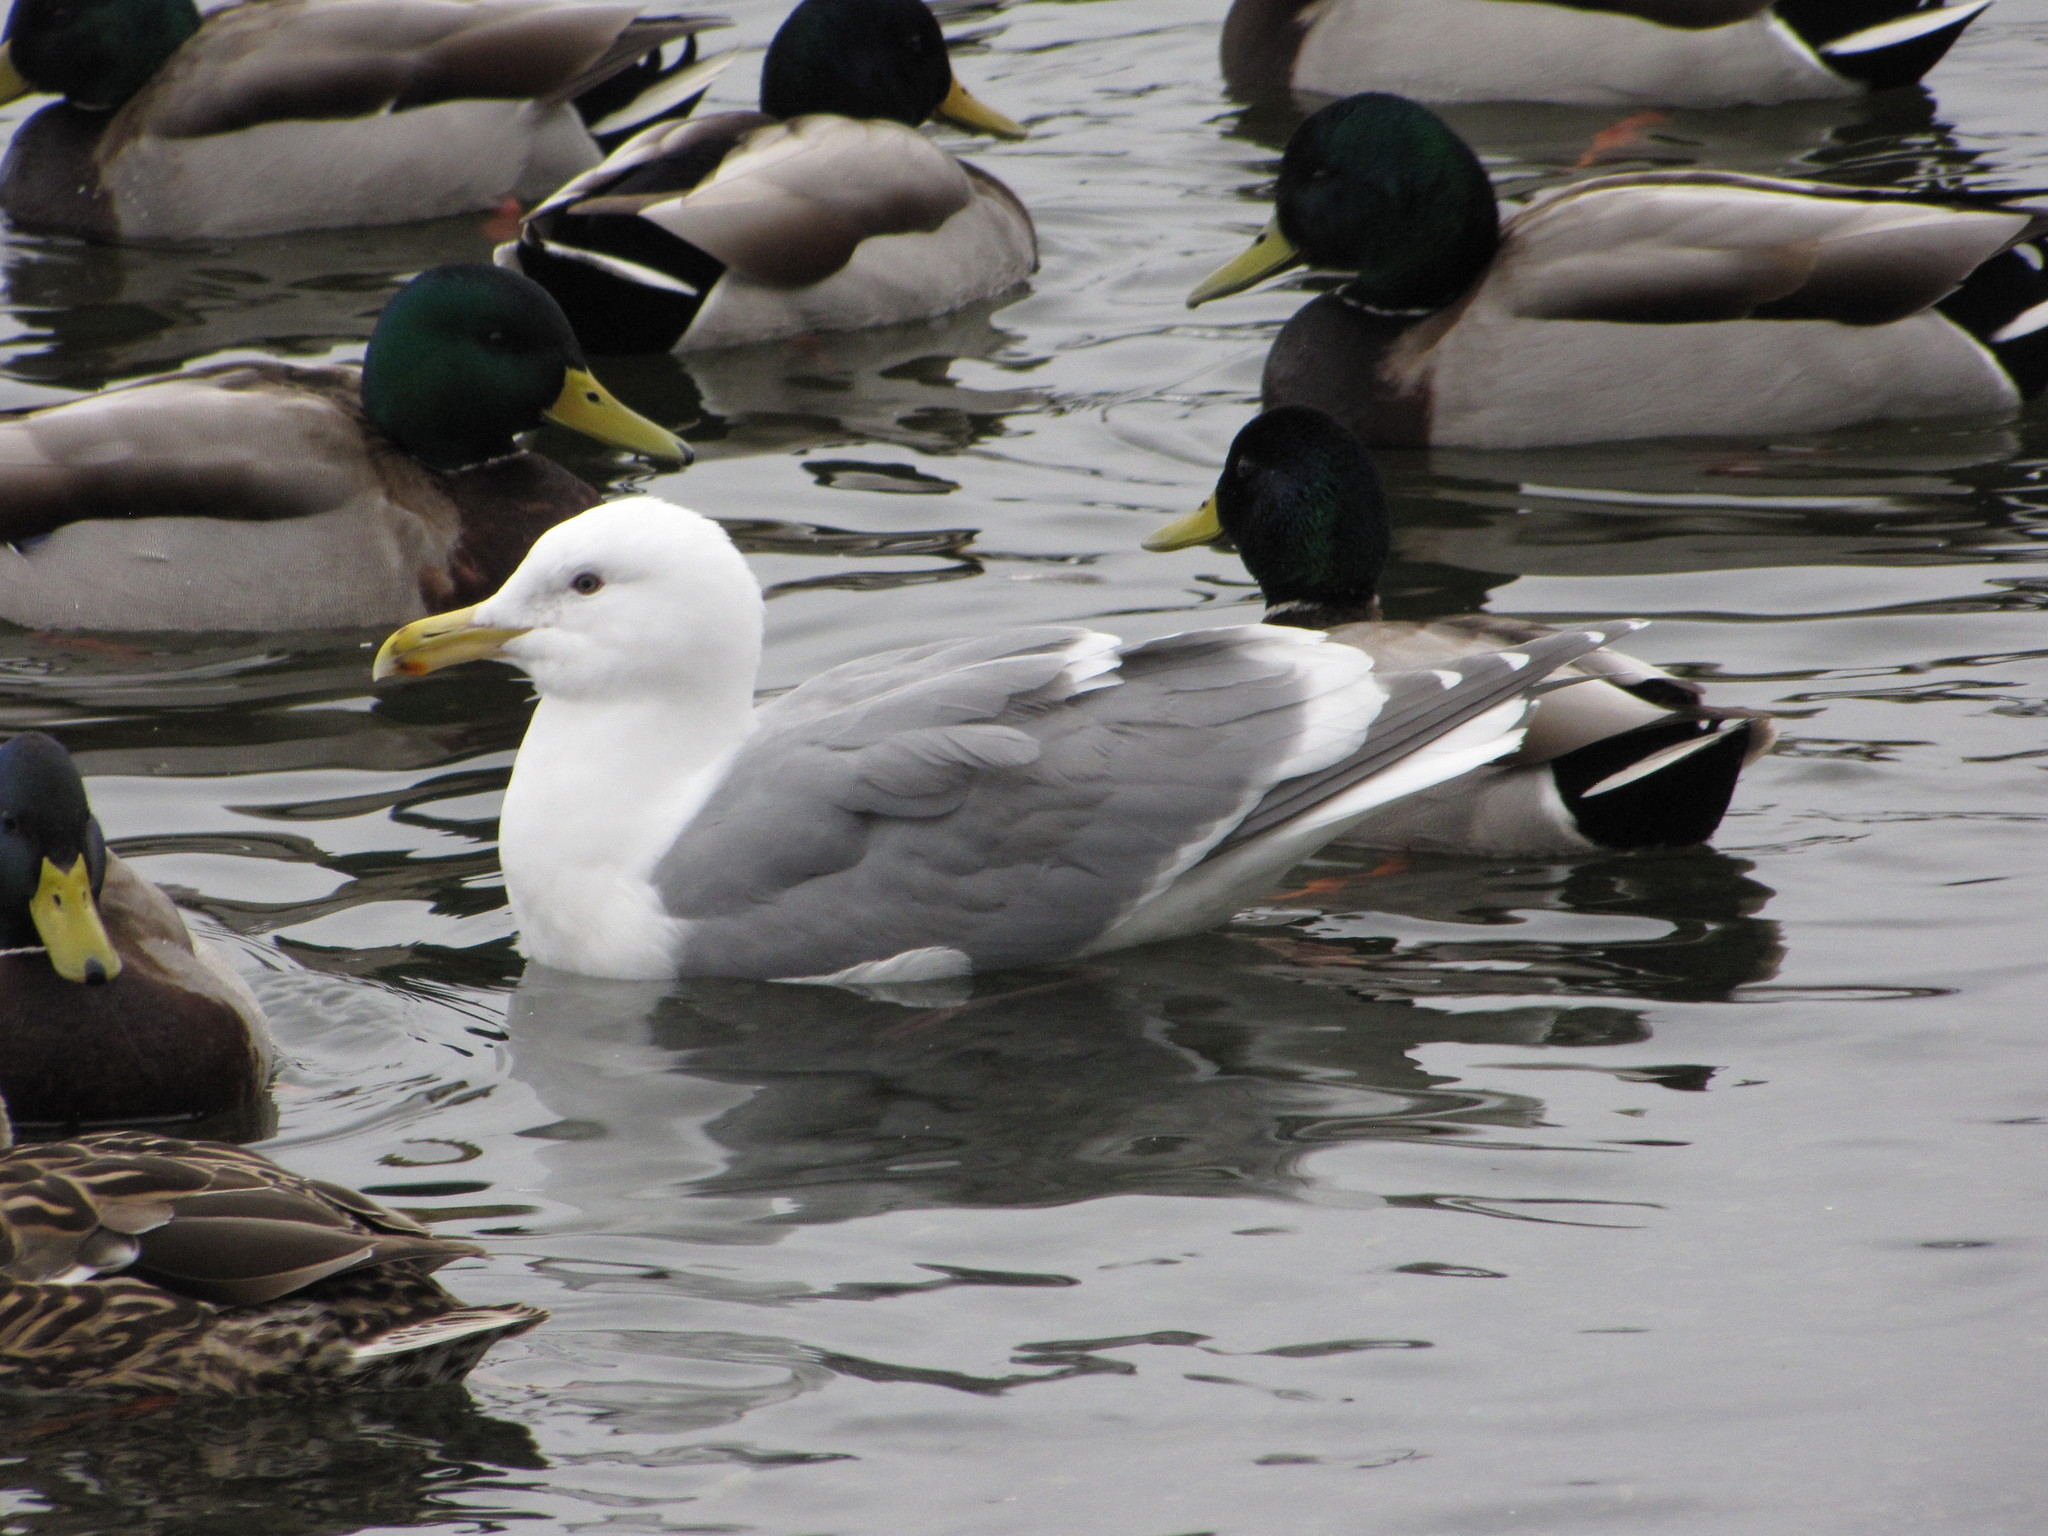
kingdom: Animalia
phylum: Chordata
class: Aves
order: Anseriformes
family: Anatidae
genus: Anas
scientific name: Anas platyrhynchos
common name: Mallard
